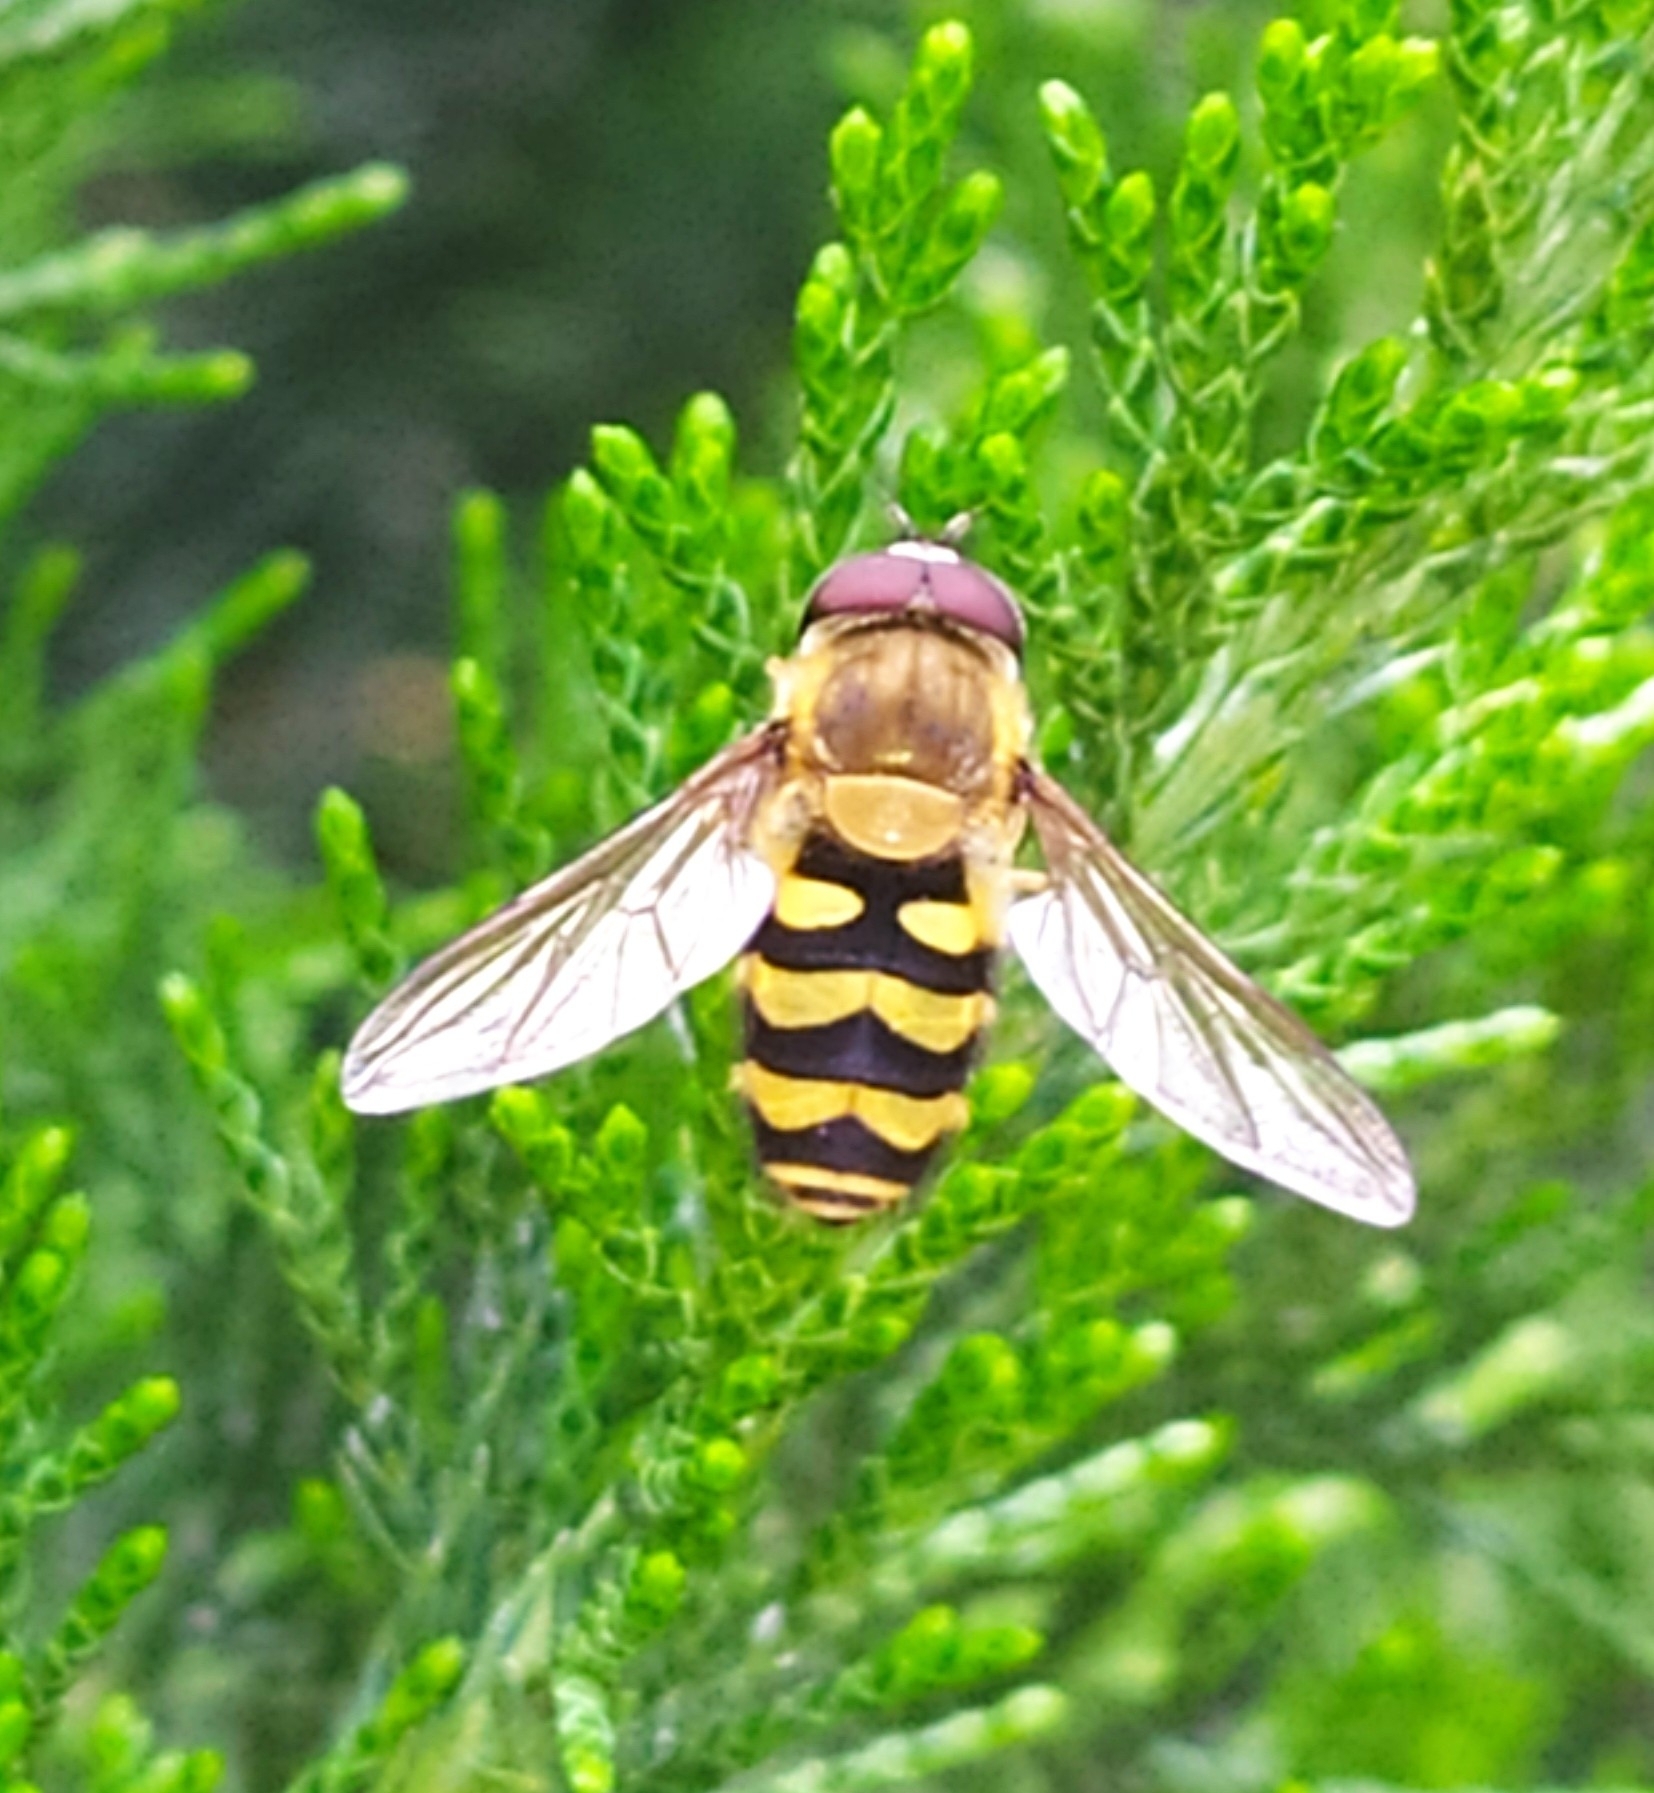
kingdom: Animalia
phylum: Arthropoda
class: Insecta
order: Diptera
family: Syrphidae
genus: Syrphus
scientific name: Syrphus
